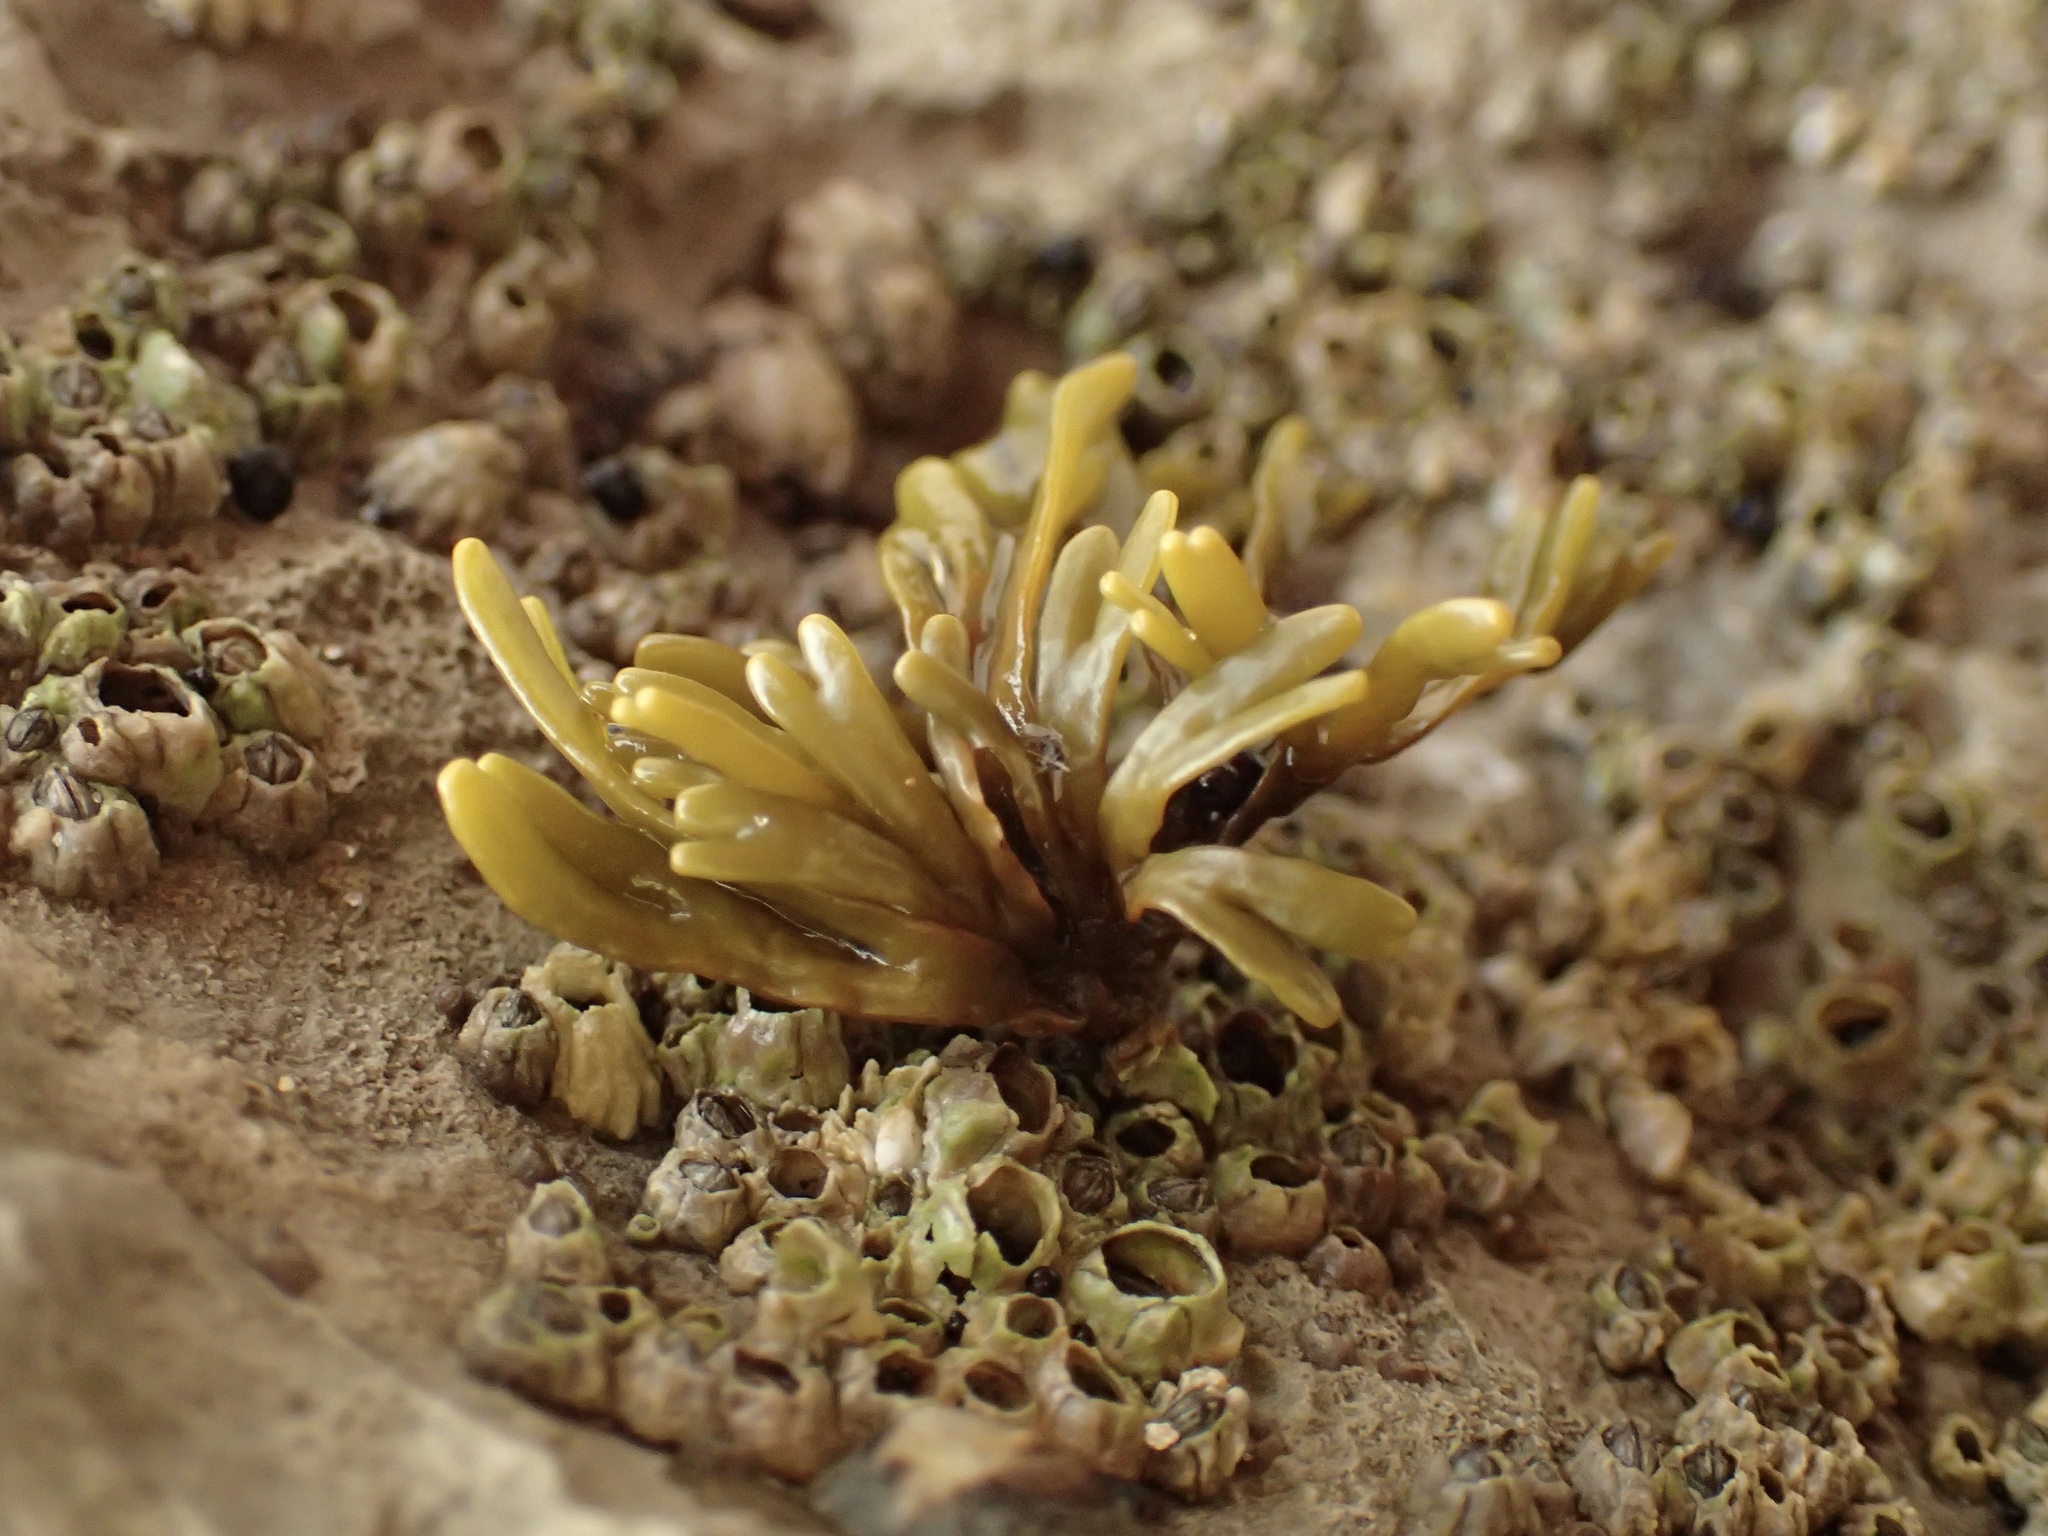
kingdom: Chromista
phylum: Ochrophyta
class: Phaeophyceae
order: Fucales
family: Fucaceae
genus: Pelvetiopsis
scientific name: Pelvetiopsis limitata
